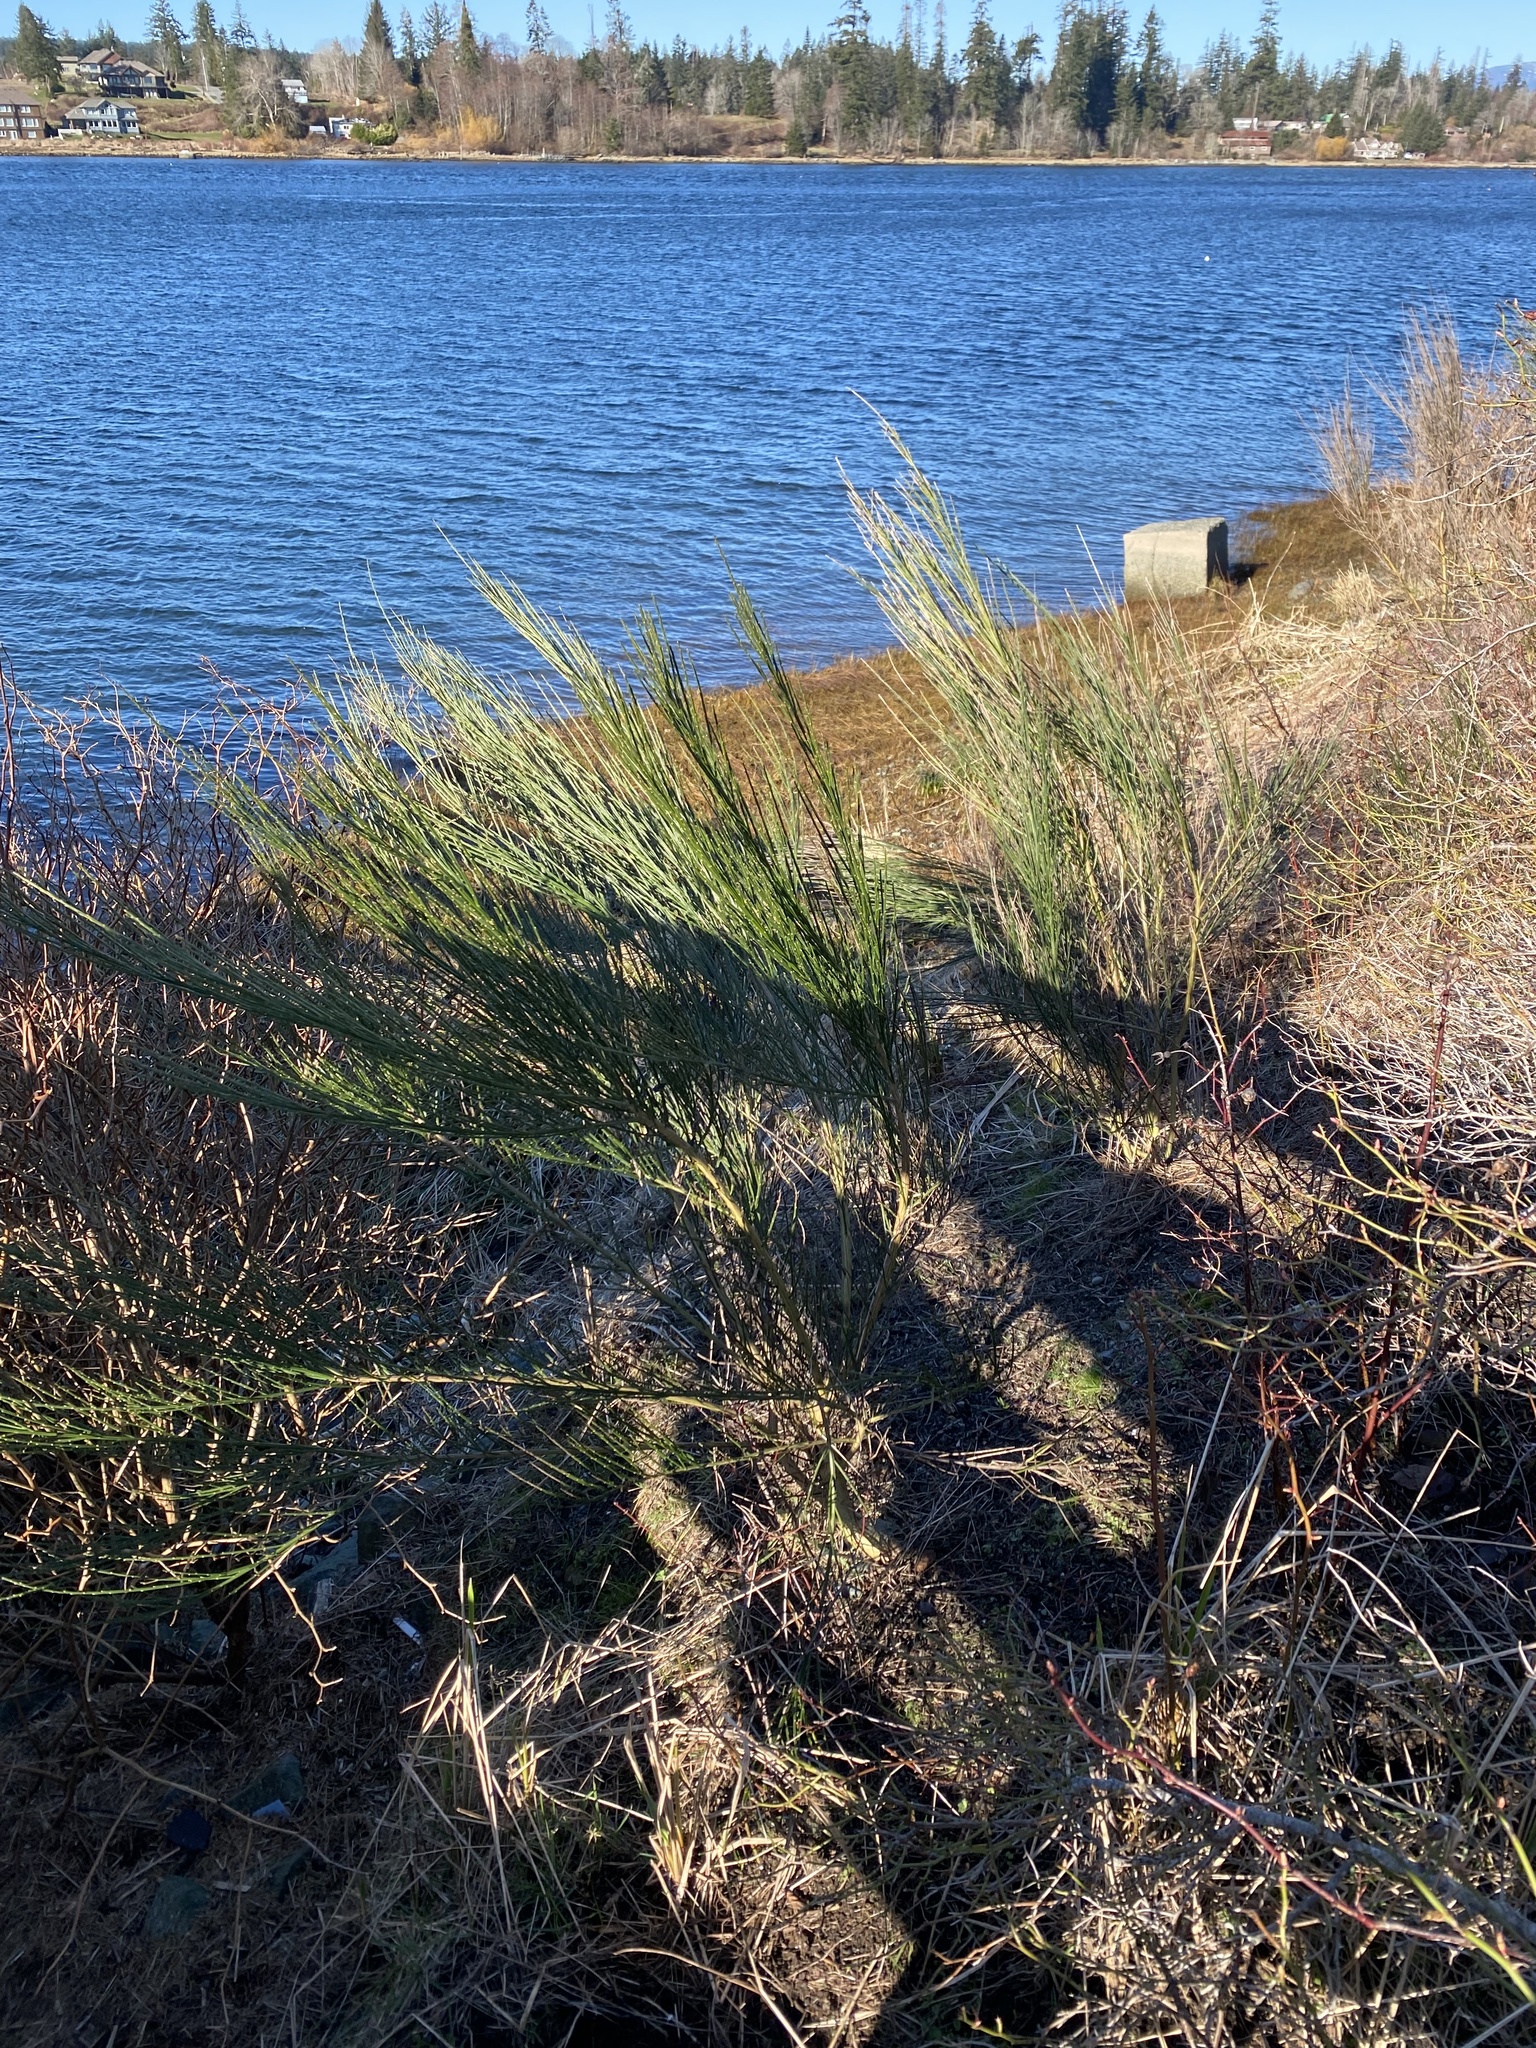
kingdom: Plantae
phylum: Tracheophyta
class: Magnoliopsida
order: Fabales
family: Fabaceae
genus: Cytisus
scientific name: Cytisus scoparius
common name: Scotch broom
